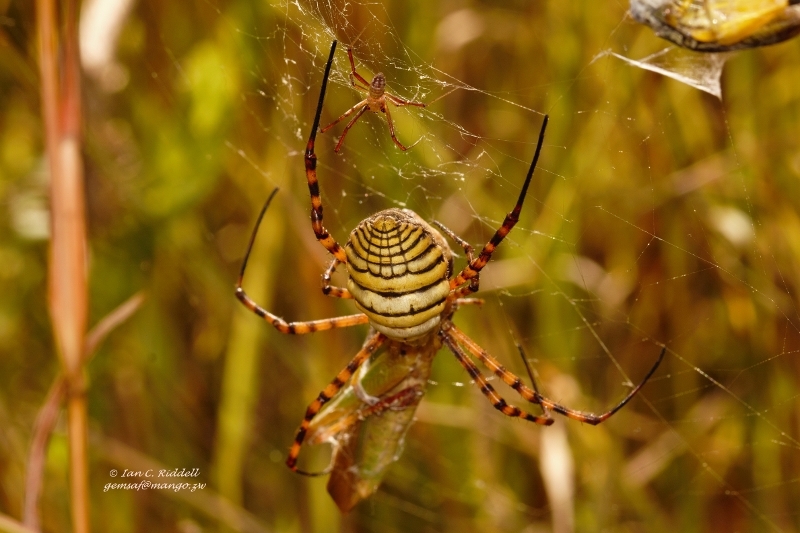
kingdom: Animalia
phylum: Arthropoda
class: Arachnida
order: Araneae
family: Araneidae
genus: Argiope
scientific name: Argiope trifasciata
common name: Banded garden spider
